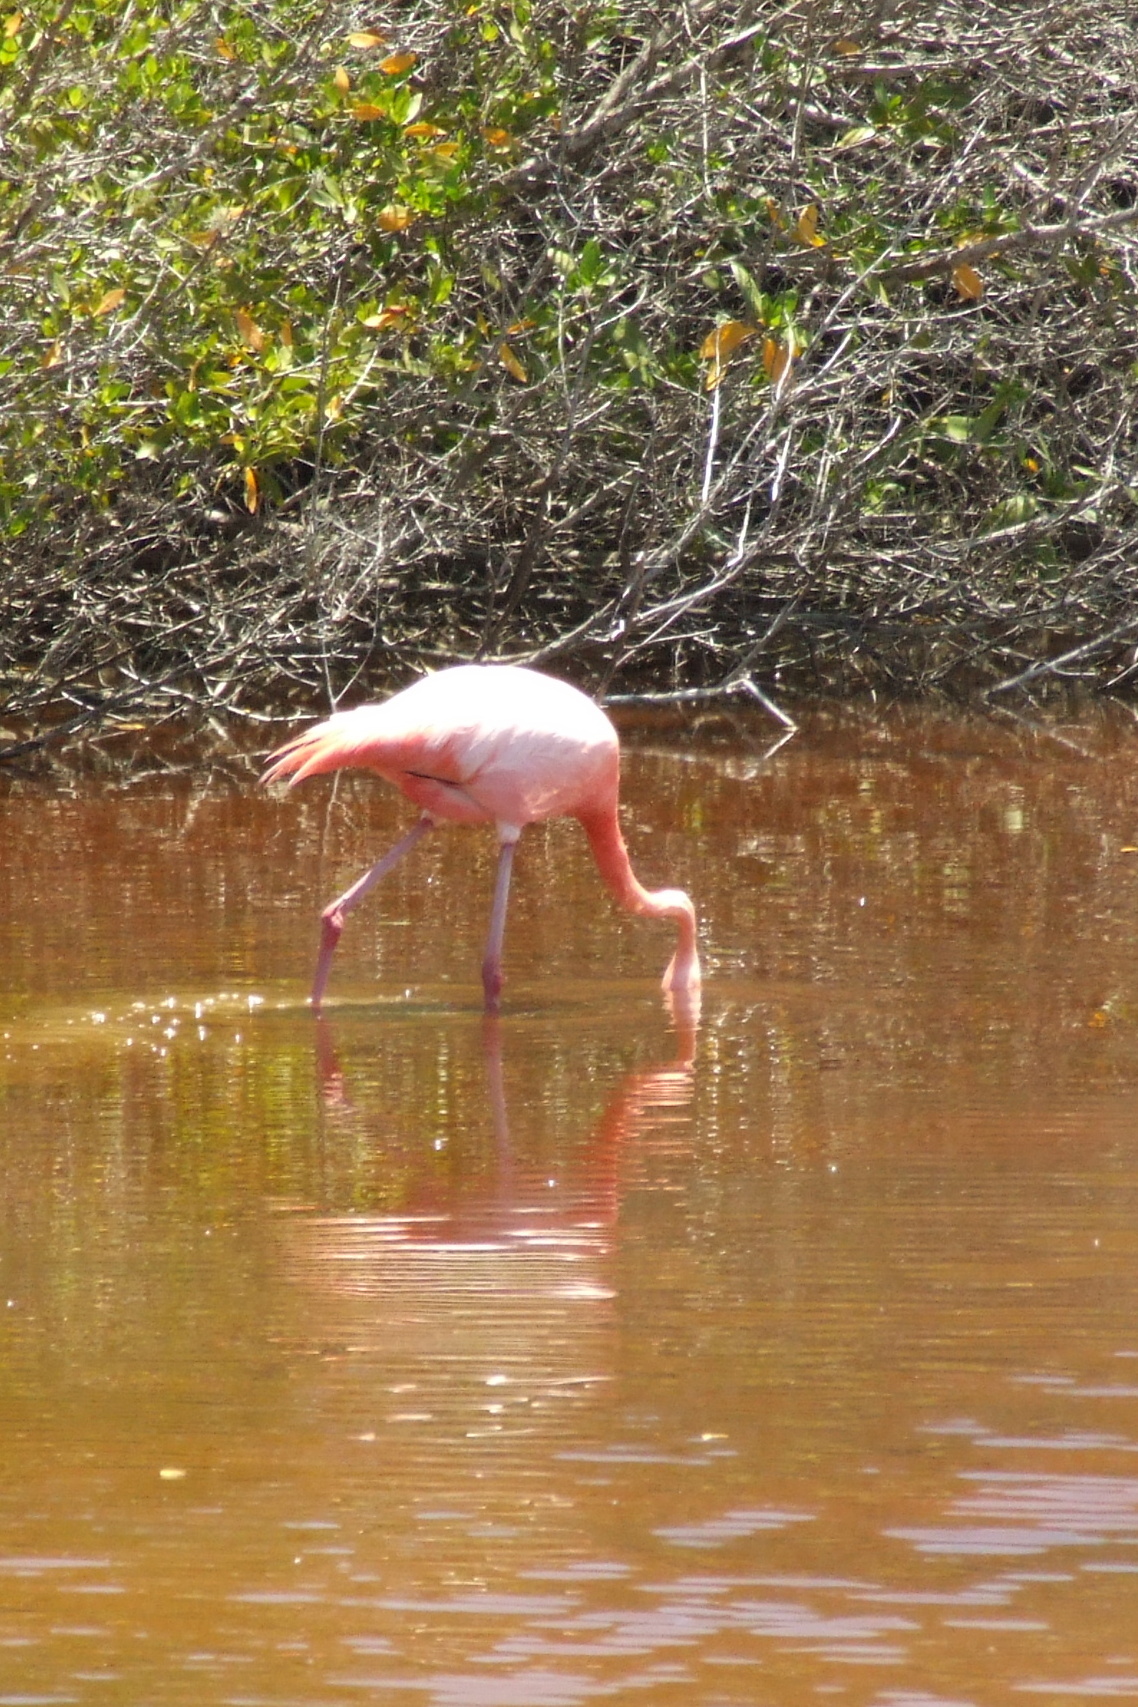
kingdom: Animalia
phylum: Chordata
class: Aves
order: Phoenicopteriformes
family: Phoenicopteridae
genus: Phoenicopterus
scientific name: Phoenicopterus ruber
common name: American flamingo
